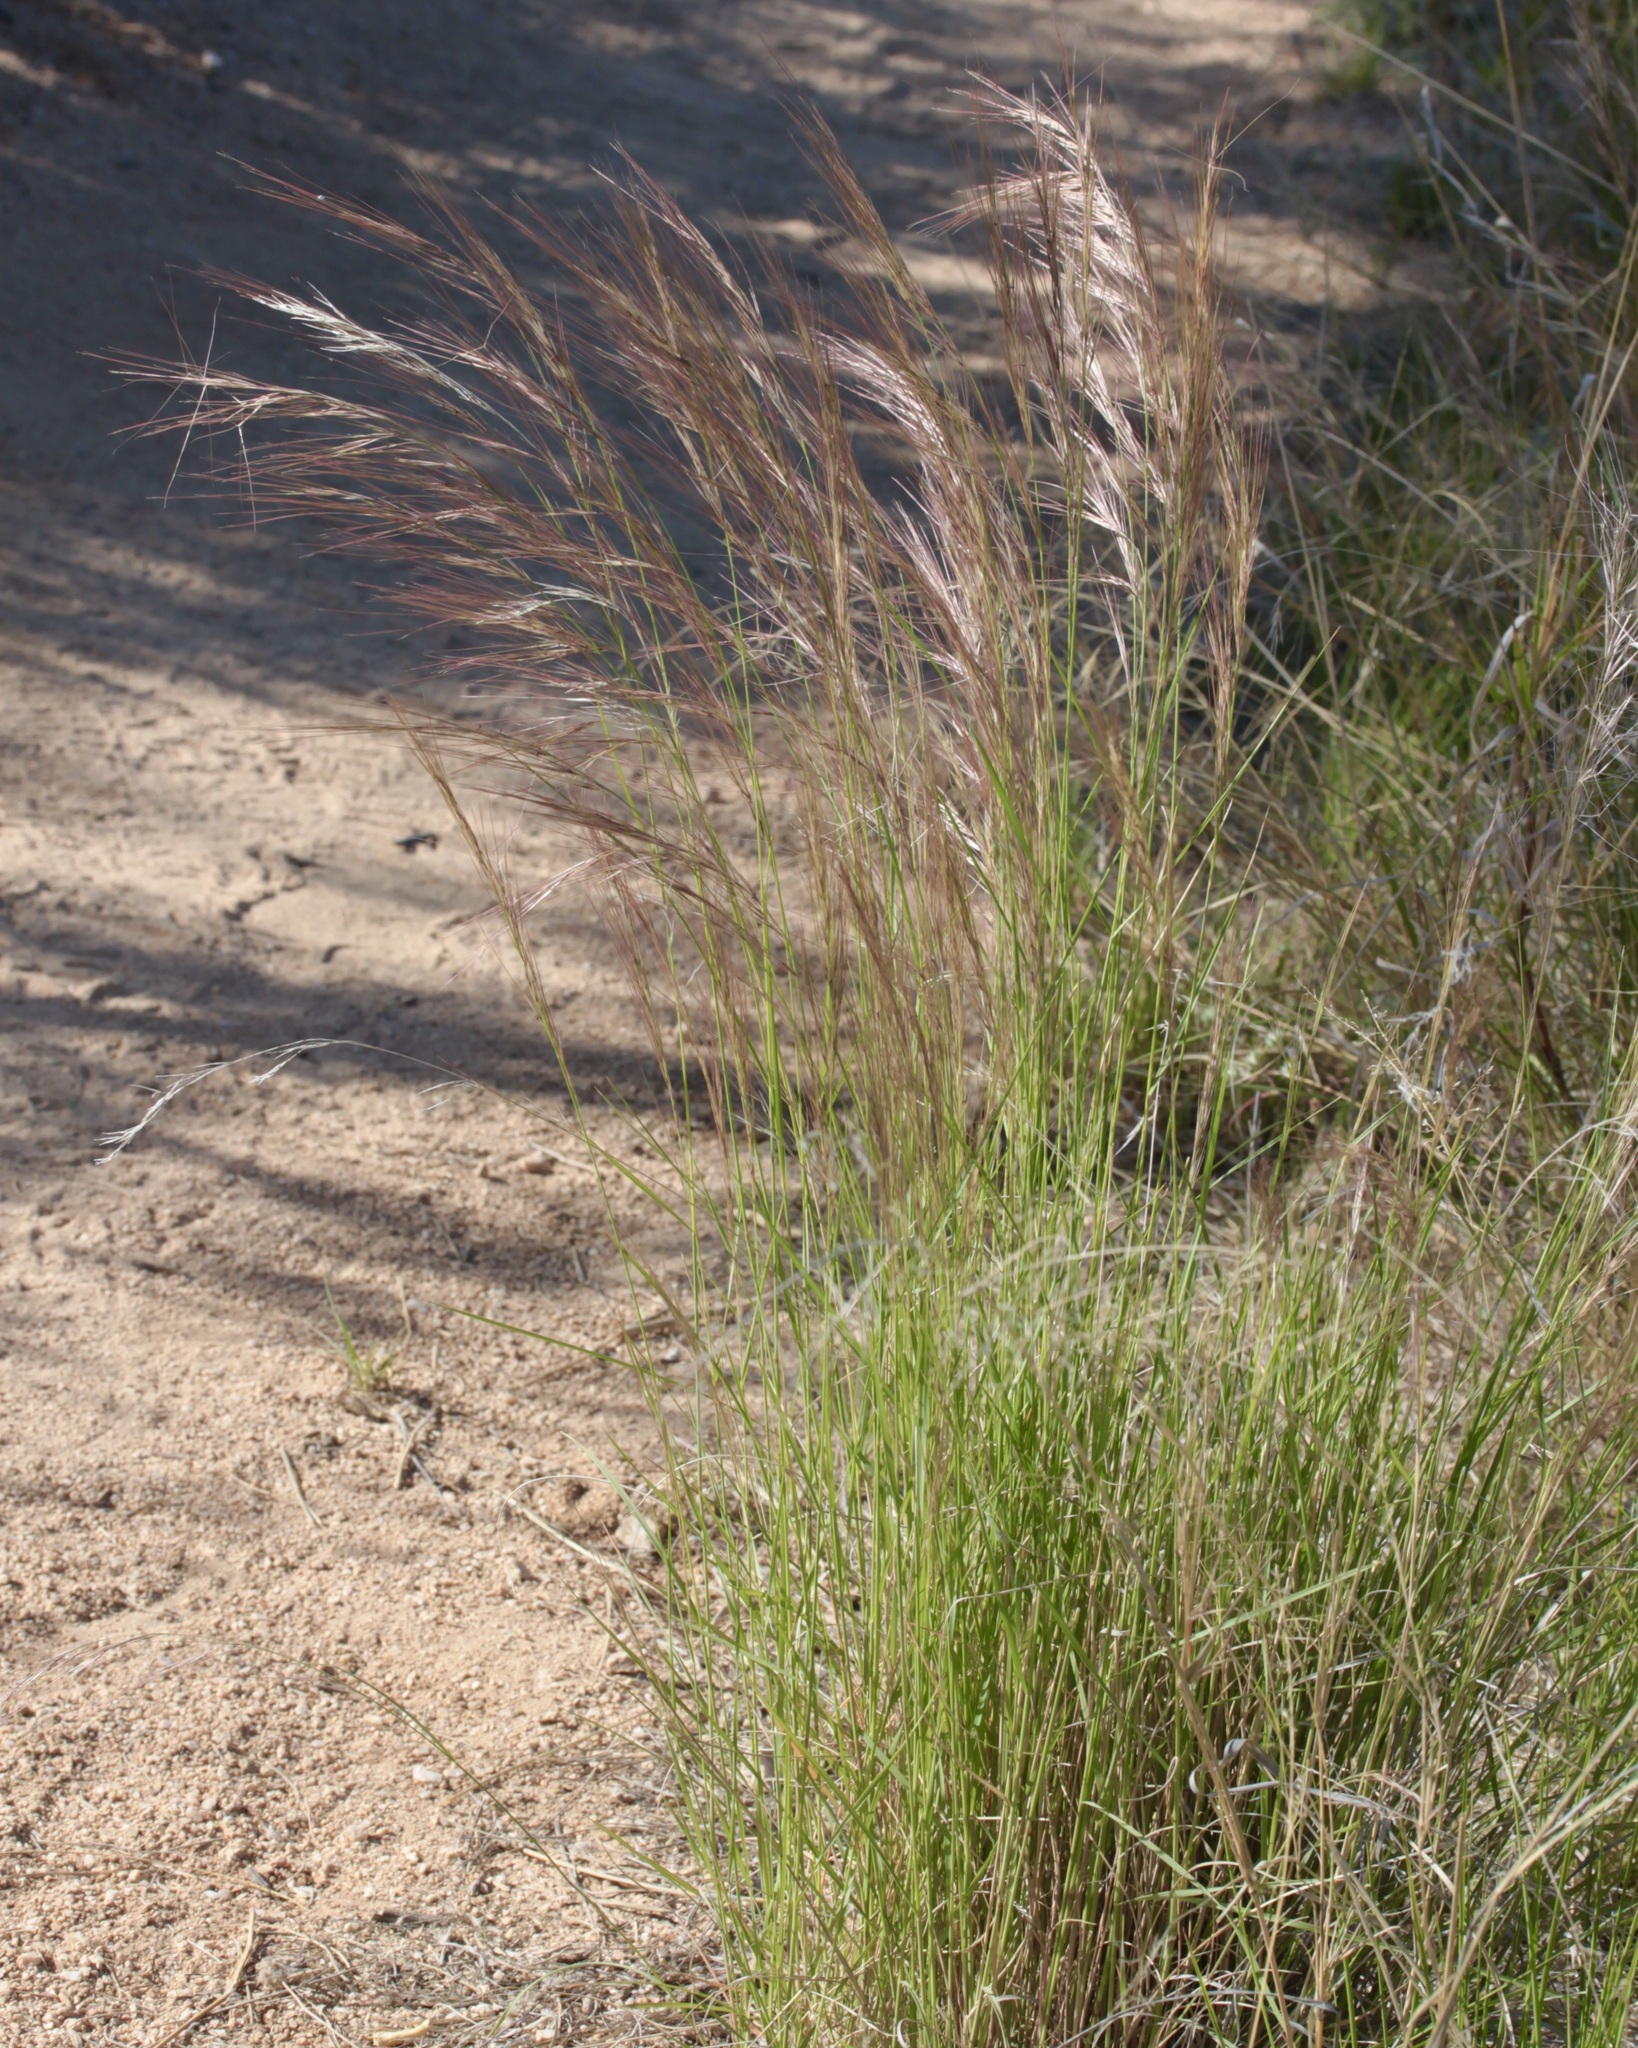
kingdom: Plantae
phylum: Tracheophyta
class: Liliopsida
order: Poales
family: Poaceae
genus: Aristida
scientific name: Aristida purpurea
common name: Purple threeawn
